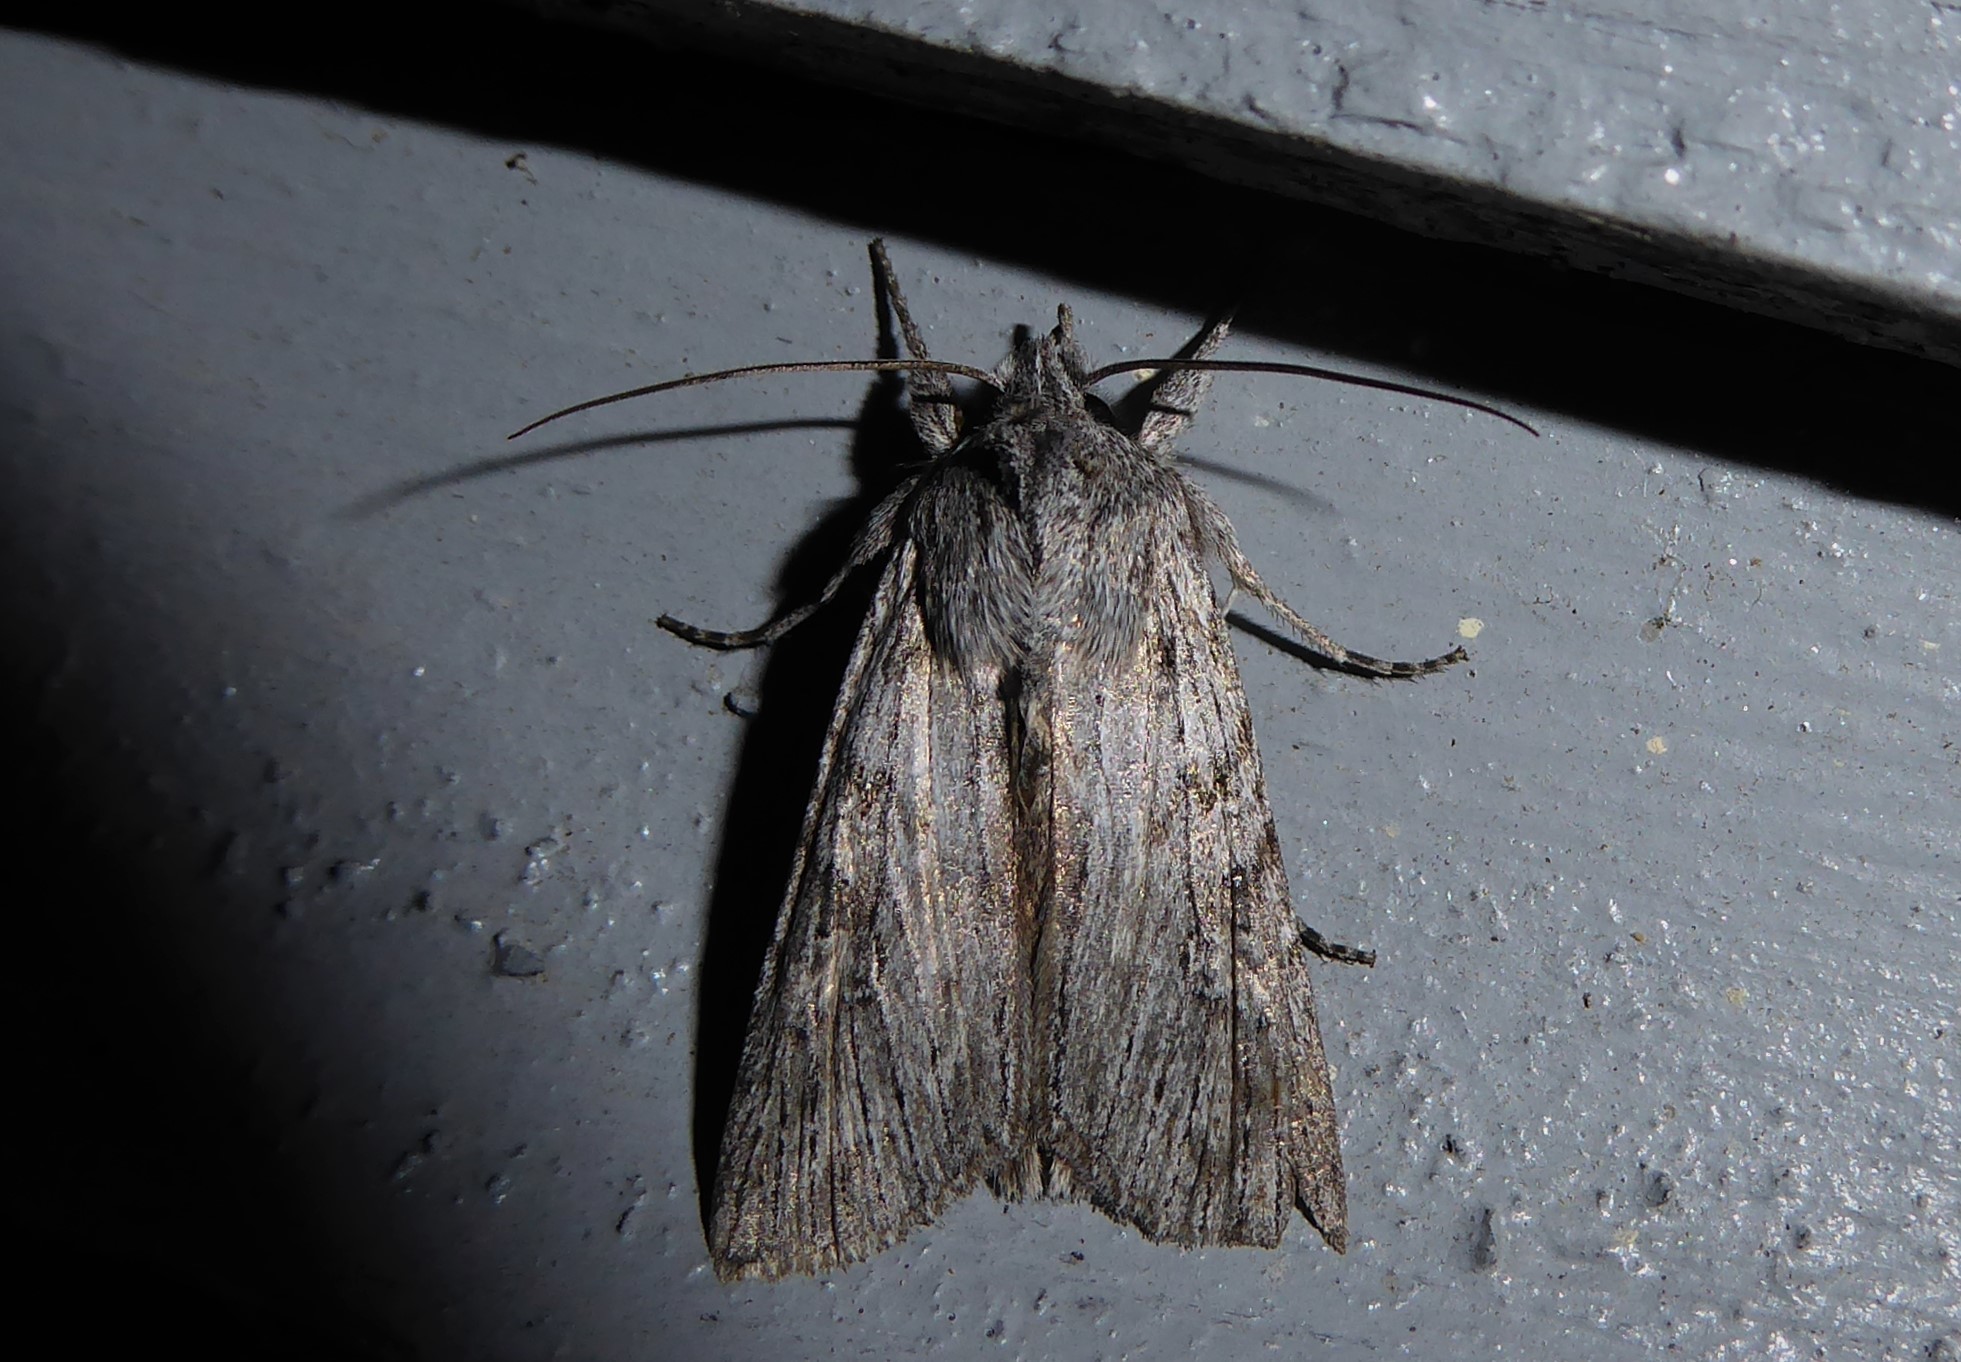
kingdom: Animalia
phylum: Arthropoda
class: Insecta
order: Lepidoptera
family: Noctuidae
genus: Physetica
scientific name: Physetica phricias
